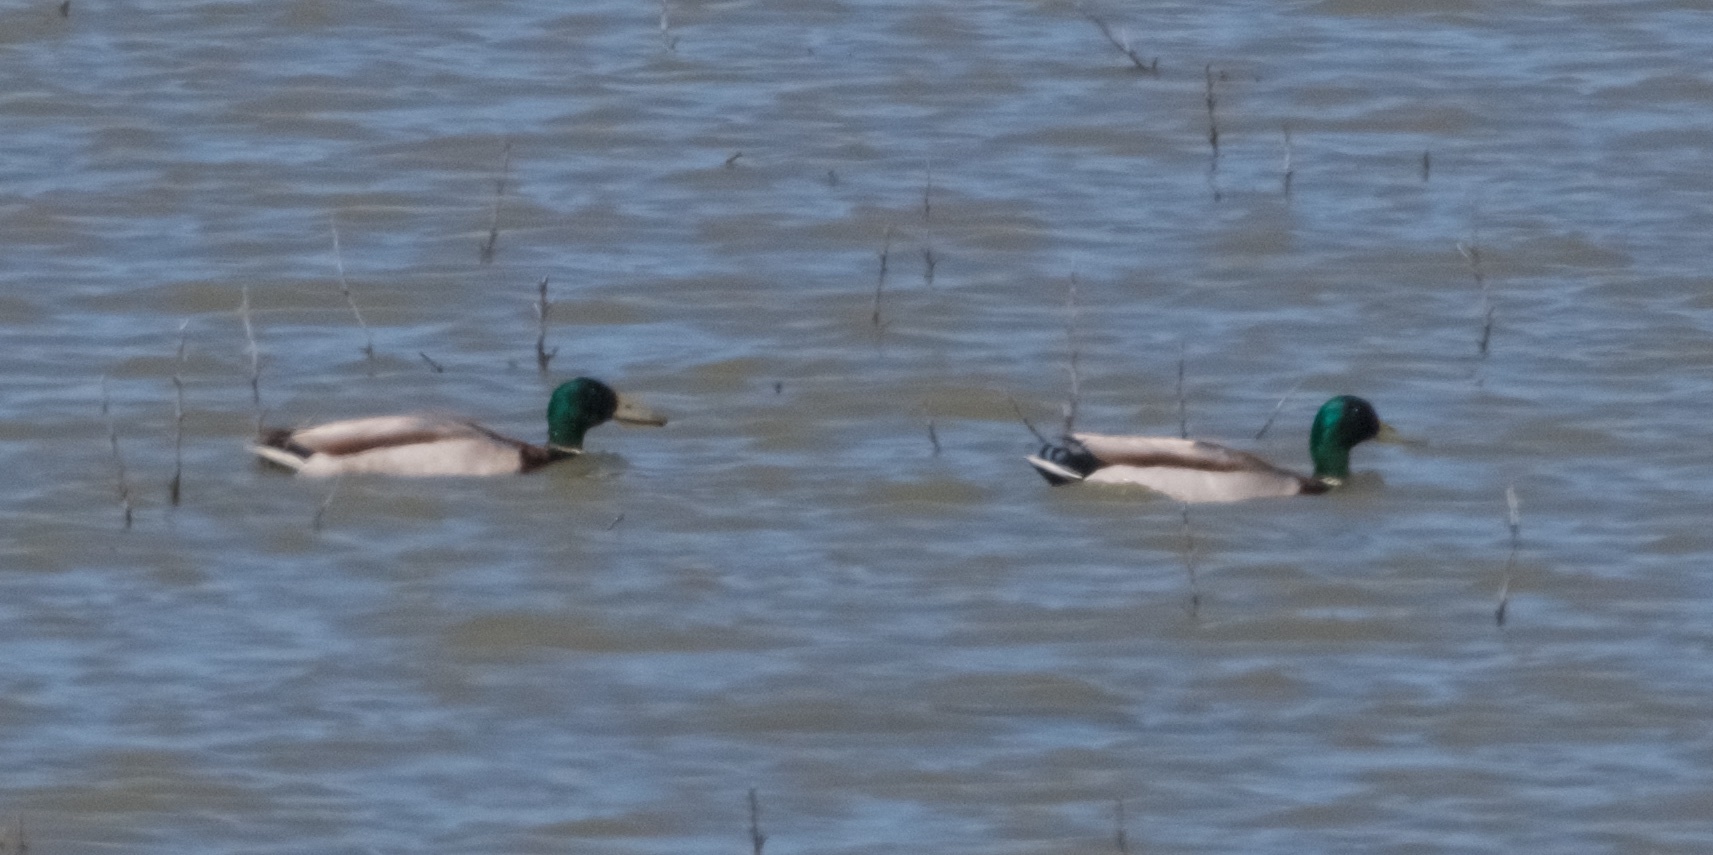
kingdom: Animalia
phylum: Chordata
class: Aves
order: Anseriformes
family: Anatidae
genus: Anas
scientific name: Anas platyrhynchos
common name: Mallard
